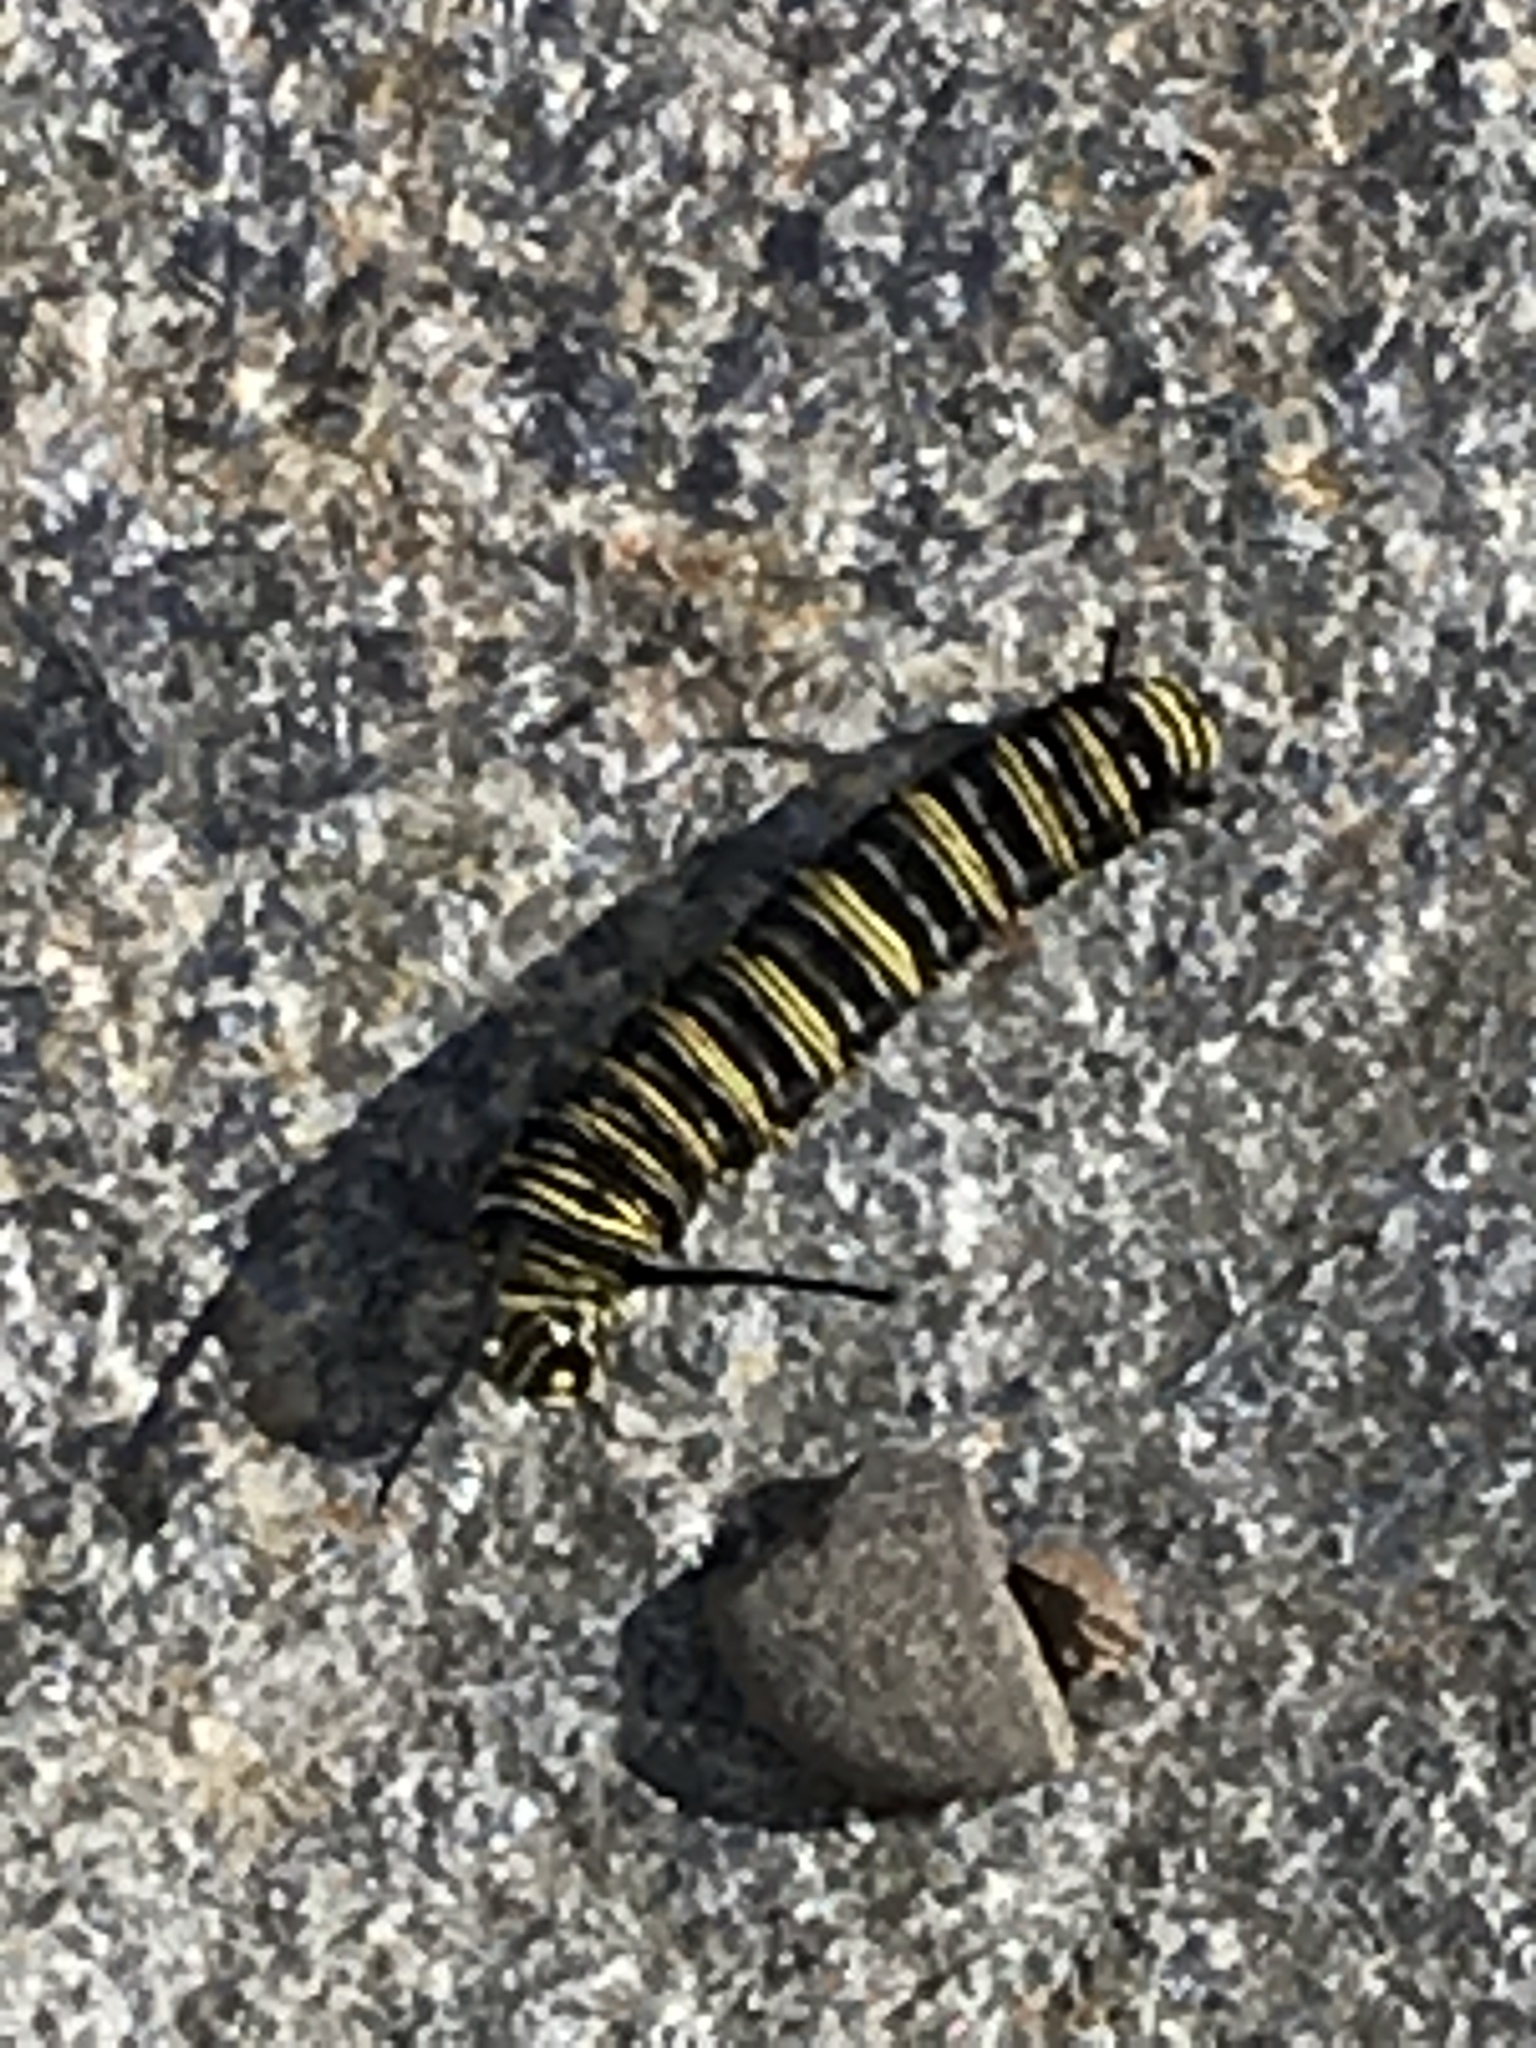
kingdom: Animalia
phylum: Arthropoda
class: Insecta
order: Lepidoptera
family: Nymphalidae
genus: Danaus
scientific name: Danaus plexippus
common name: Monarch
